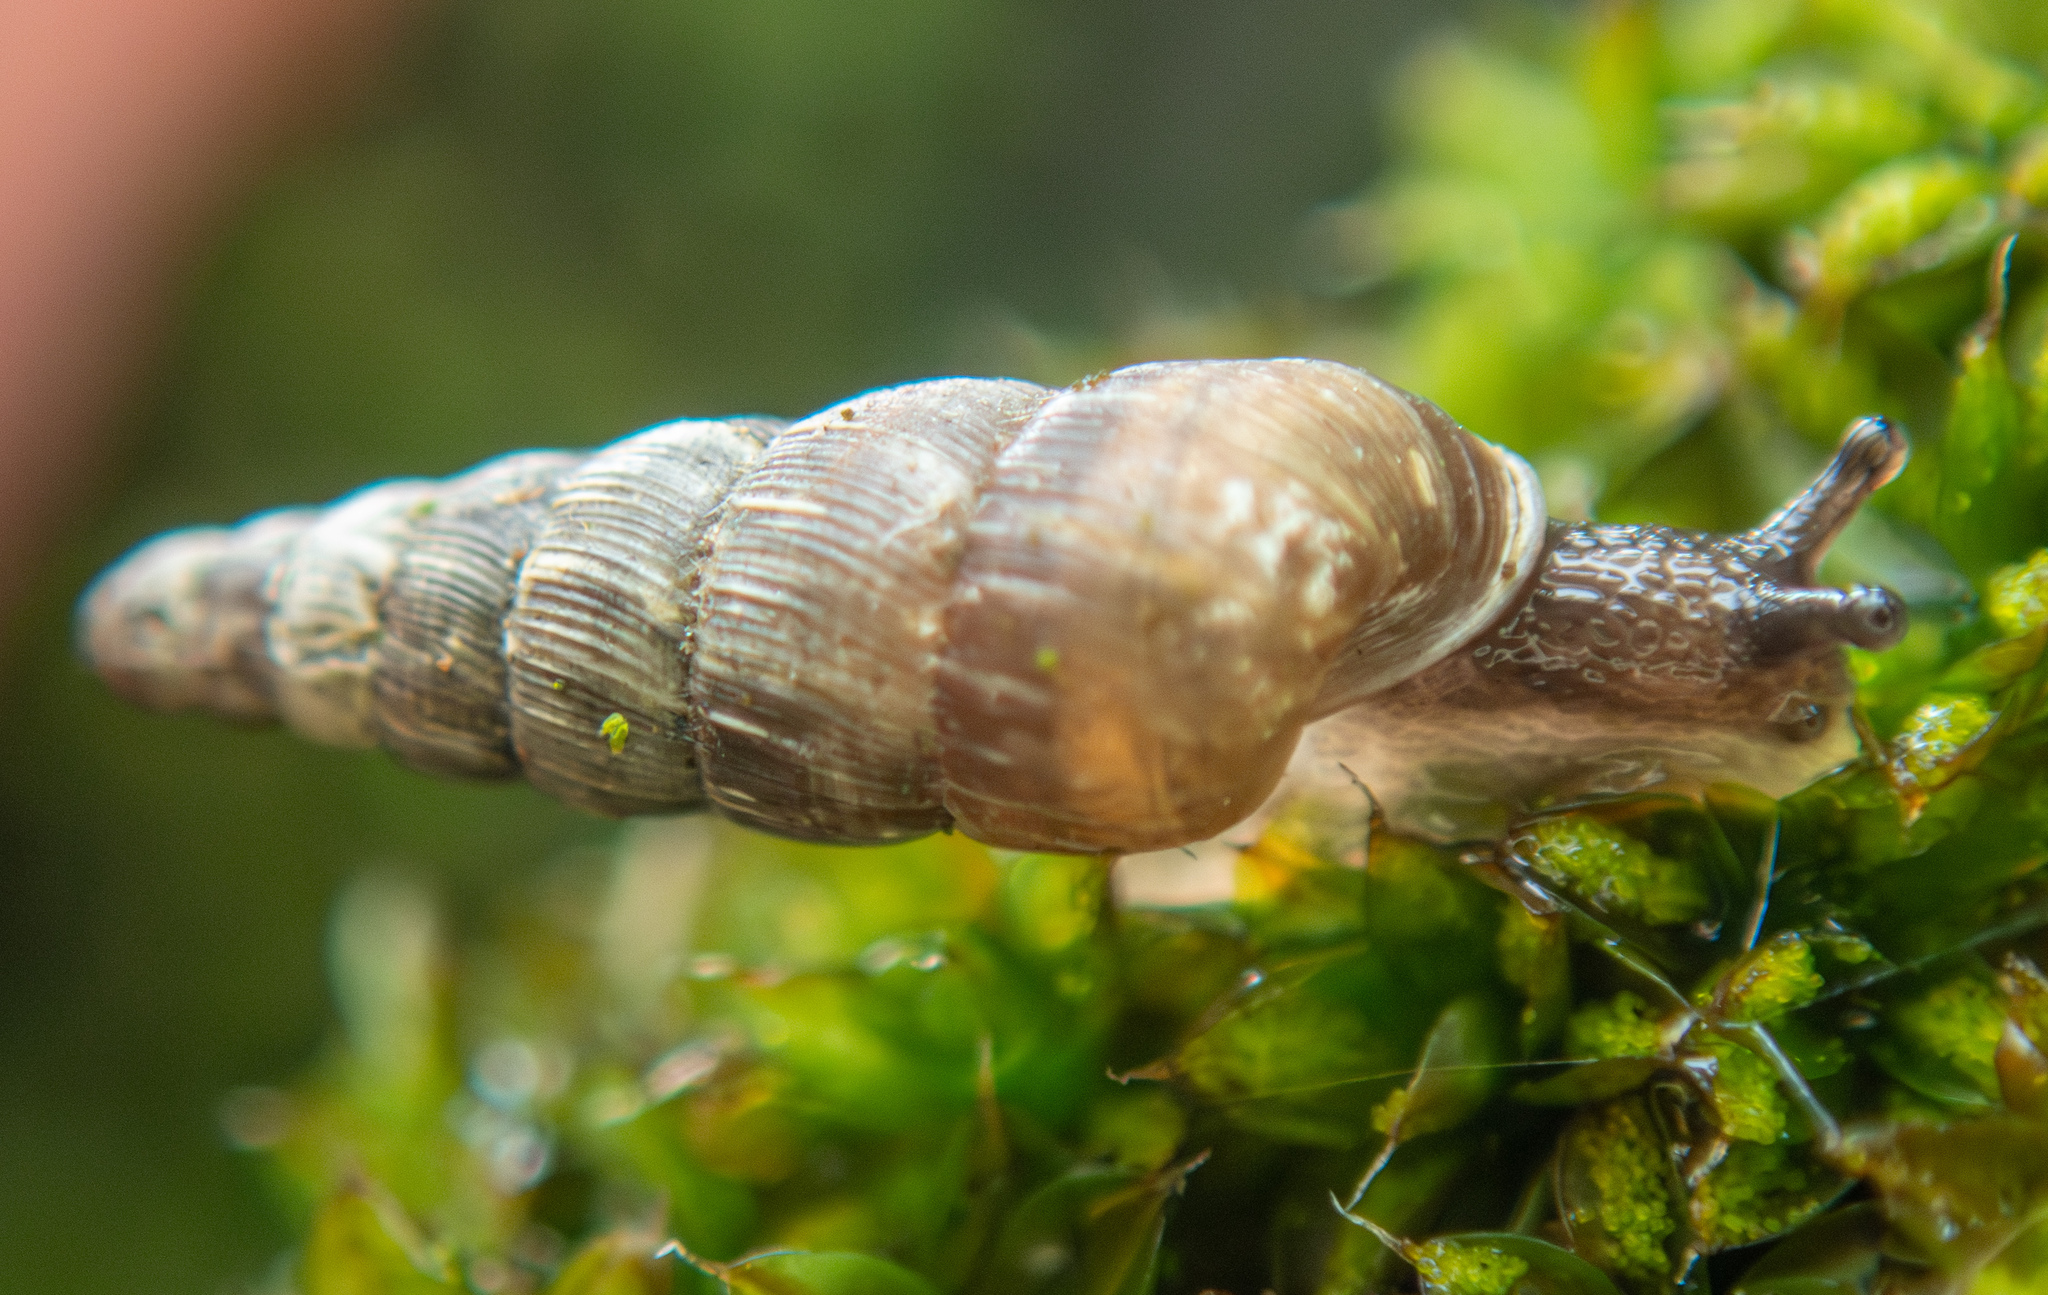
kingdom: Animalia
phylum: Mollusca
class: Gastropoda
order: Stylommatophora
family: Clausiliidae
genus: Balea
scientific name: Balea perversa
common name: Tree snail
